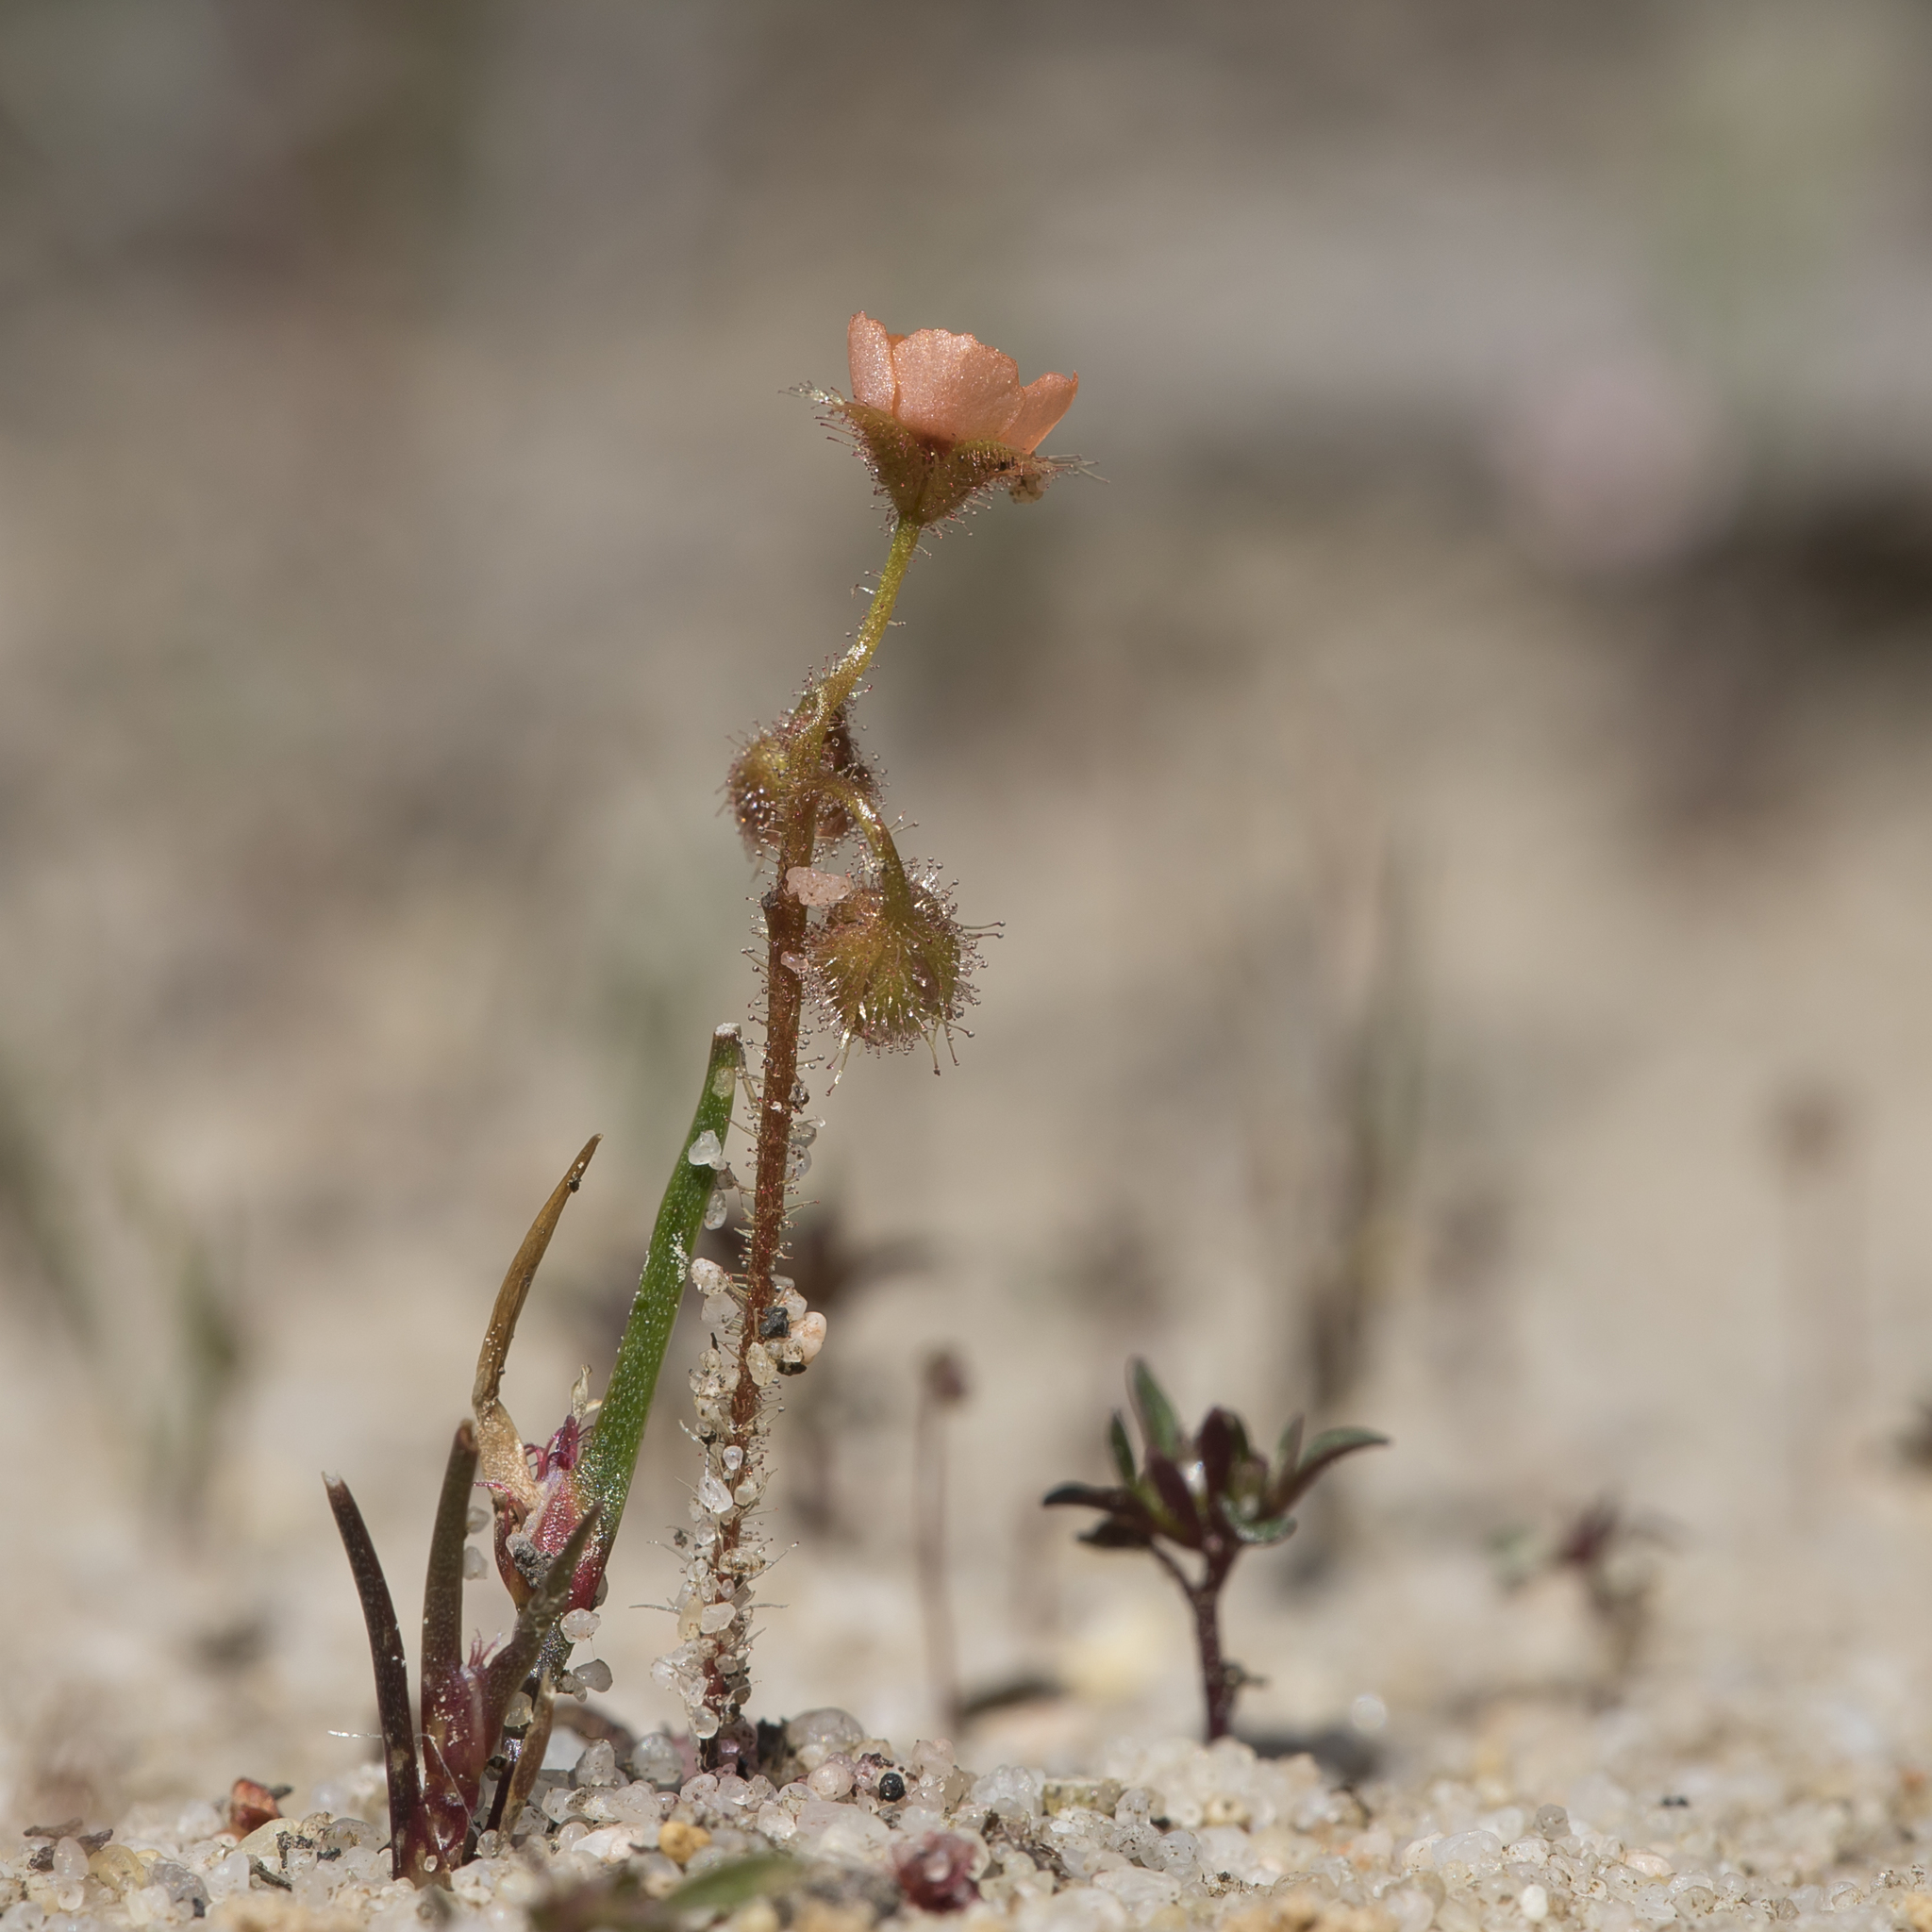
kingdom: Plantae
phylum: Tracheophyta
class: Magnoliopsida
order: Caryophyllales
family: Droseraceae
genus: Drosera
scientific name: Drosera glanduligera
